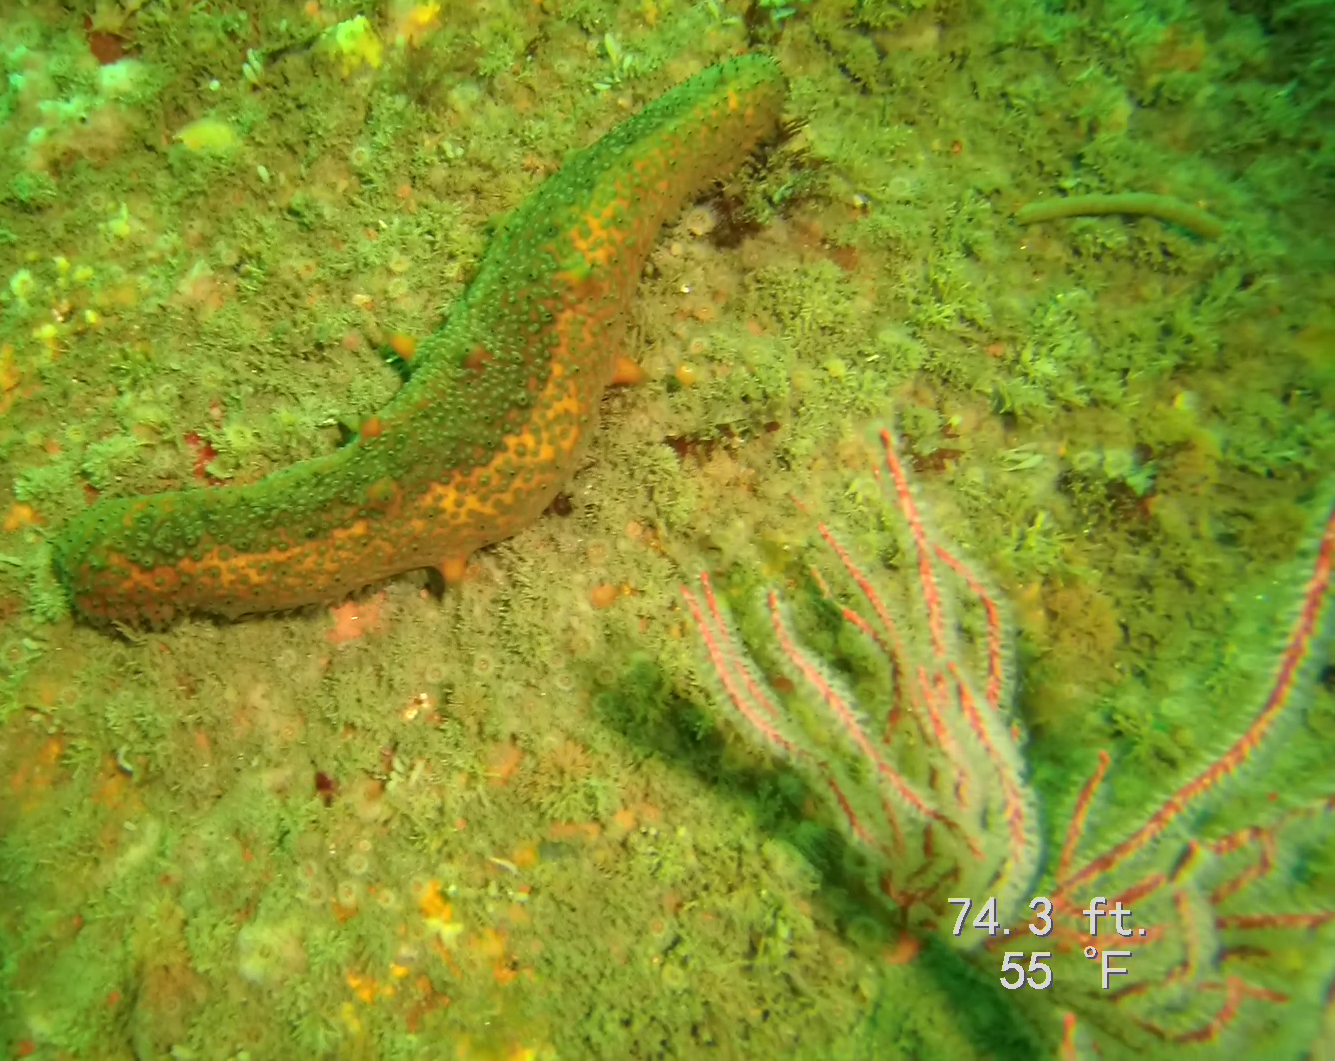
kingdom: Animalia
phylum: Echinodermata
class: Holothuroidea
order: Synallactida
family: Stichopodidae
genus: Apostichopus
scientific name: Apostichopus parvimensis
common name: Warty sea cucumber
